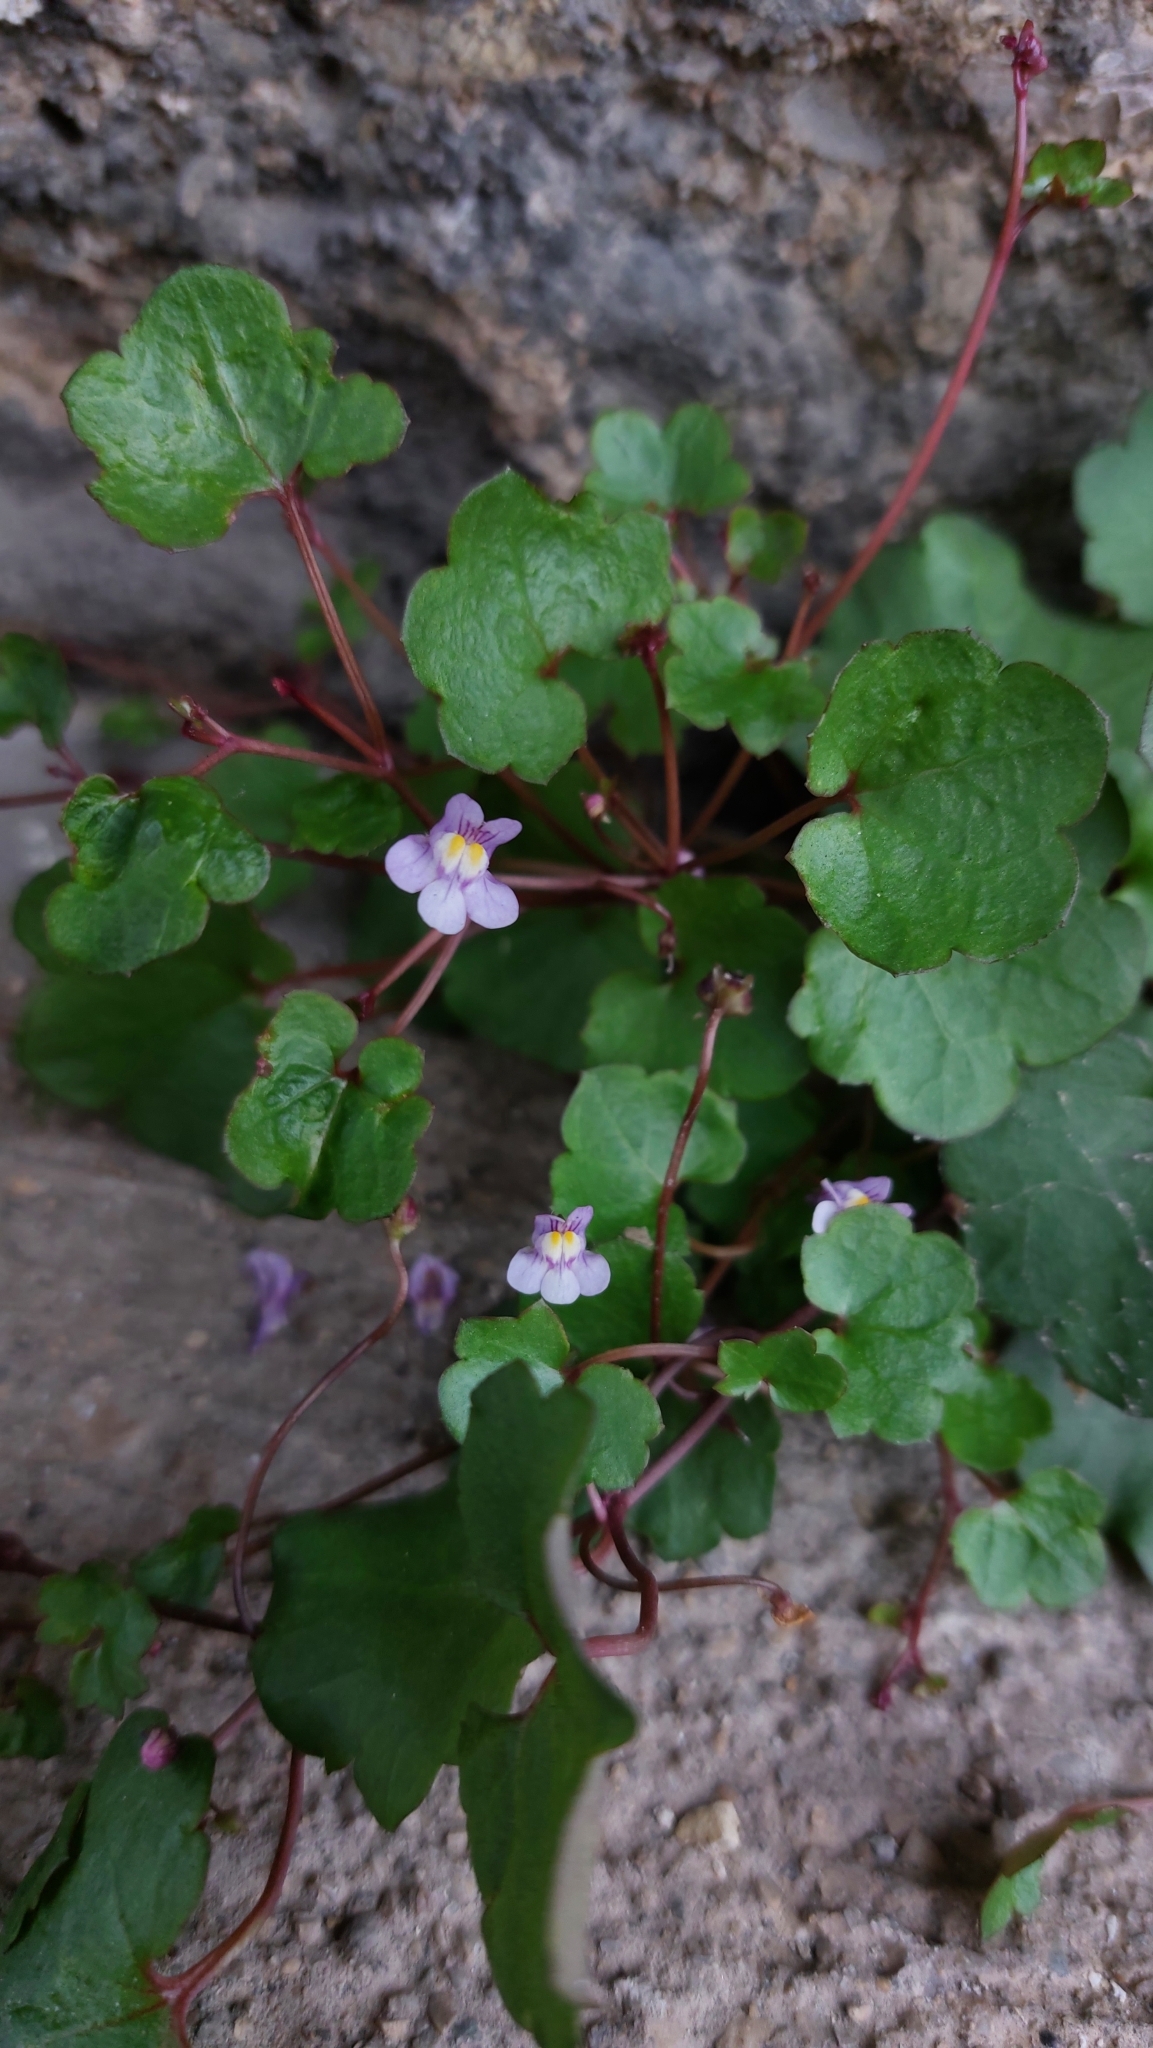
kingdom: Plantae
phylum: Tracheophyta
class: Magnoliopsida
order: Lamiales
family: Plantaginaceae
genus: Cymbalaria
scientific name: Cymbalaria muralis
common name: Ivy-leaved toadflax
